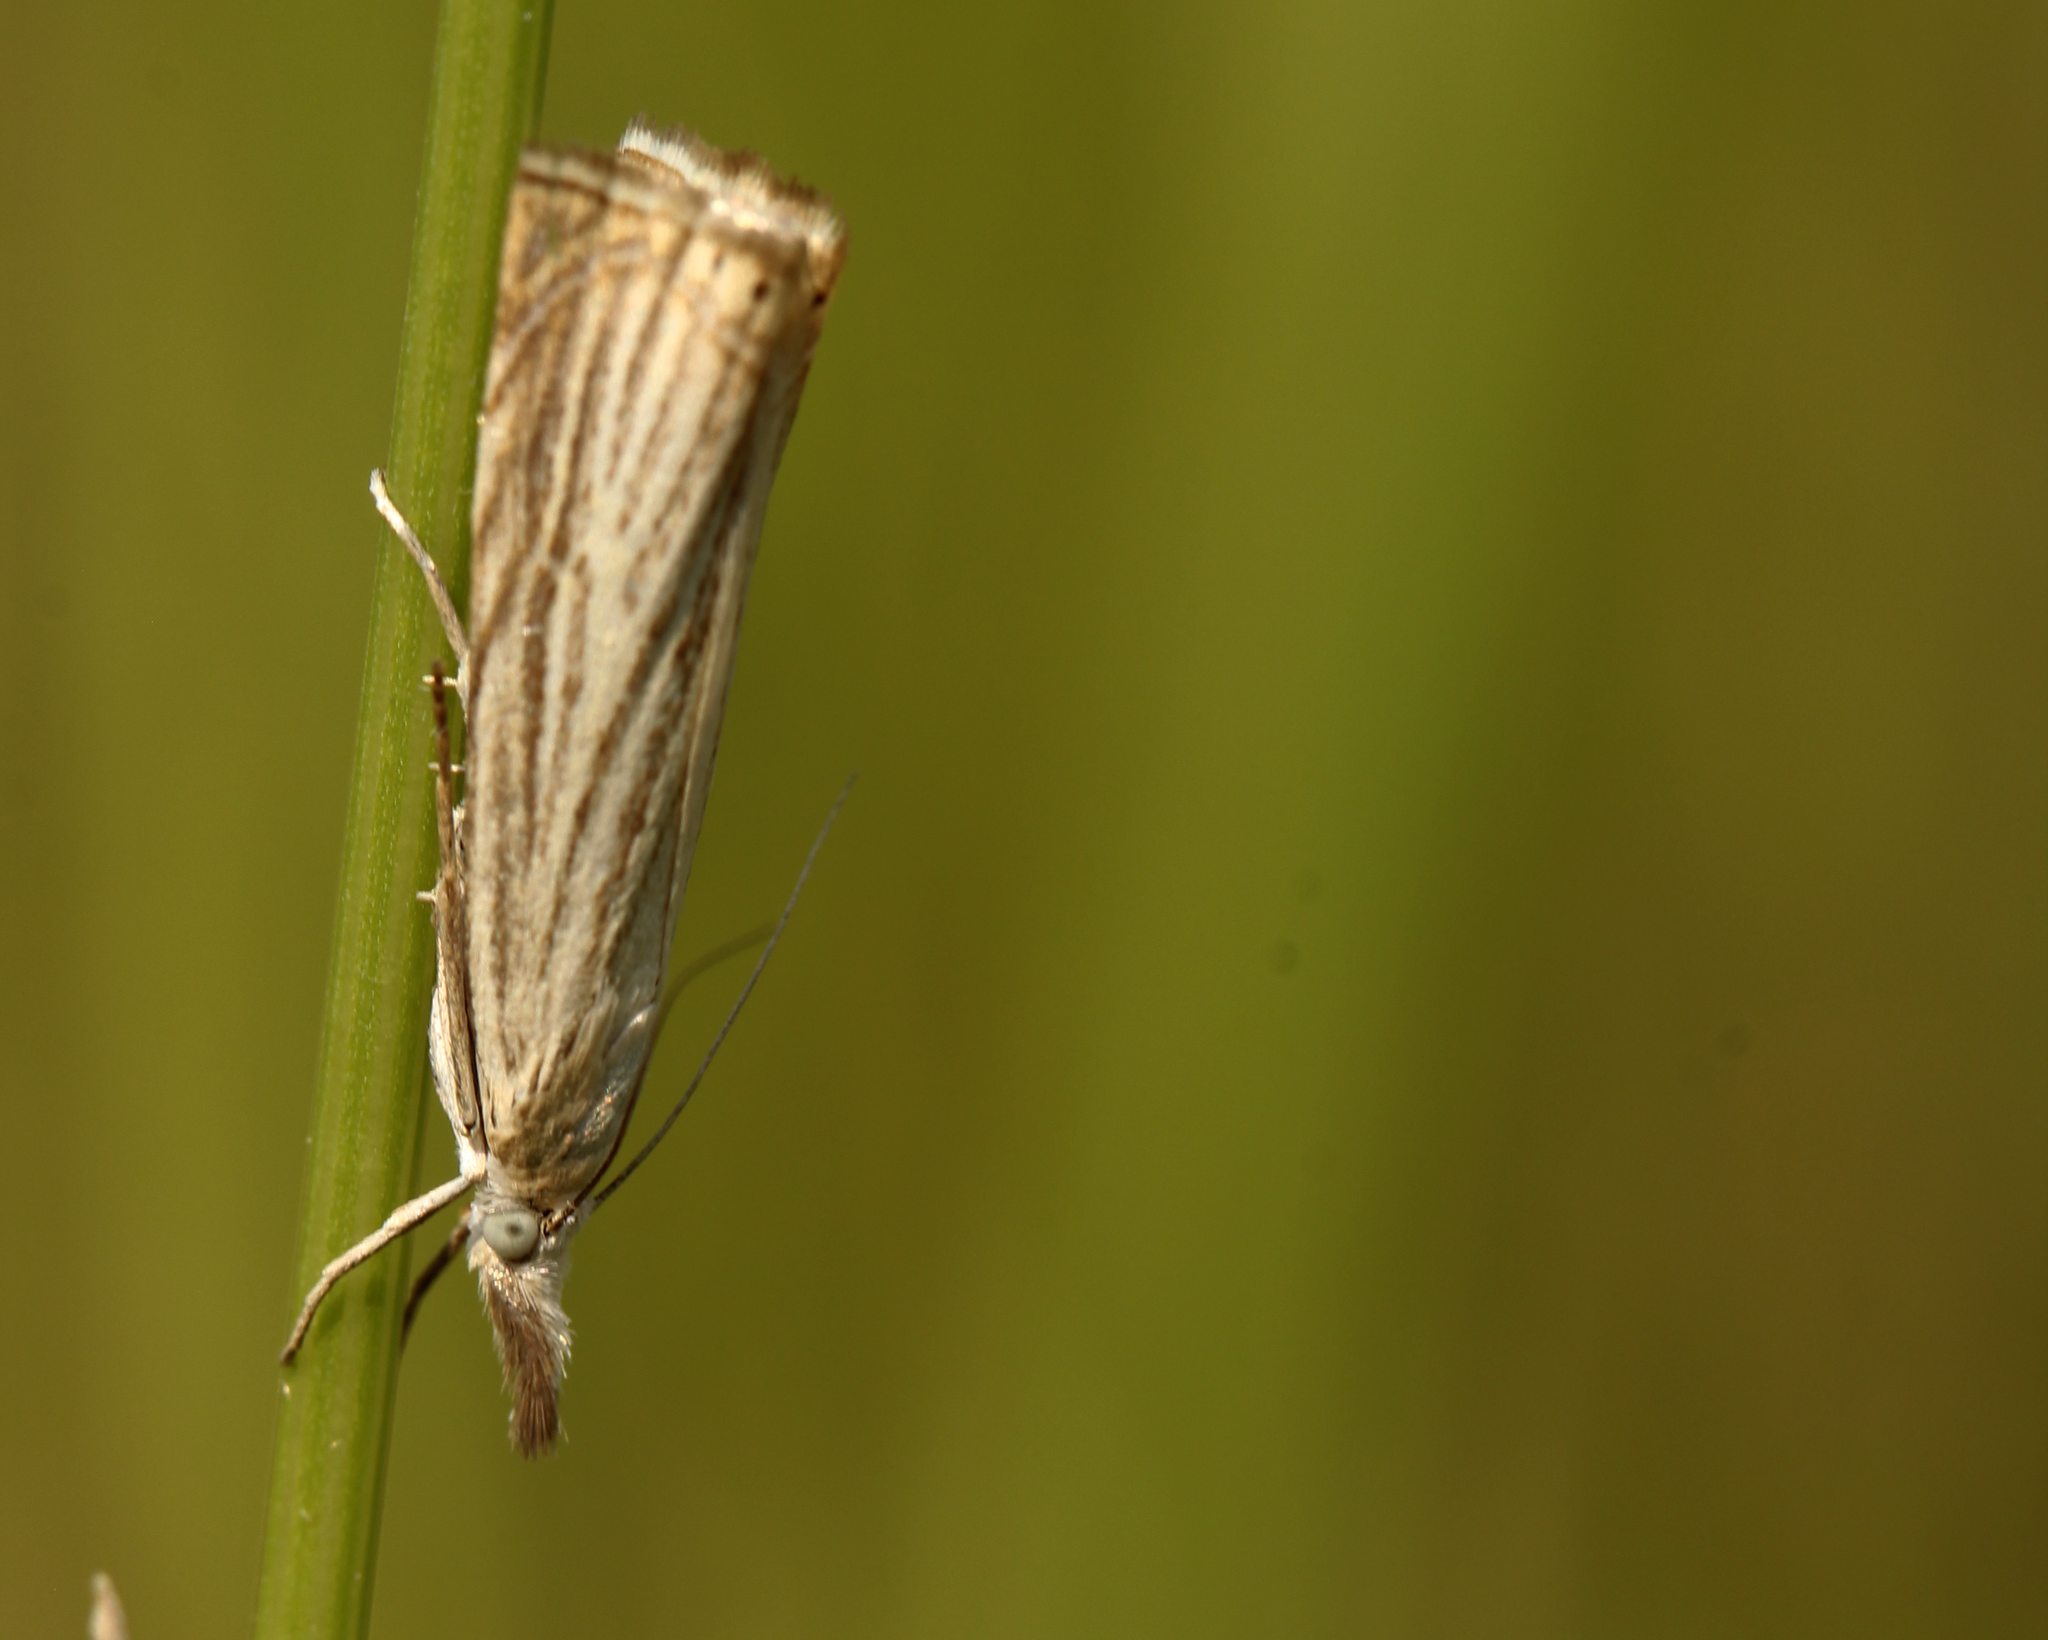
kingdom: Animalia
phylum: Arthropoda
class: Insecta
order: Lepidoptera
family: Crambidae
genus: Chrysoteuchia
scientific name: Chrysoteuchia culmella
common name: Garden grass-veneer
